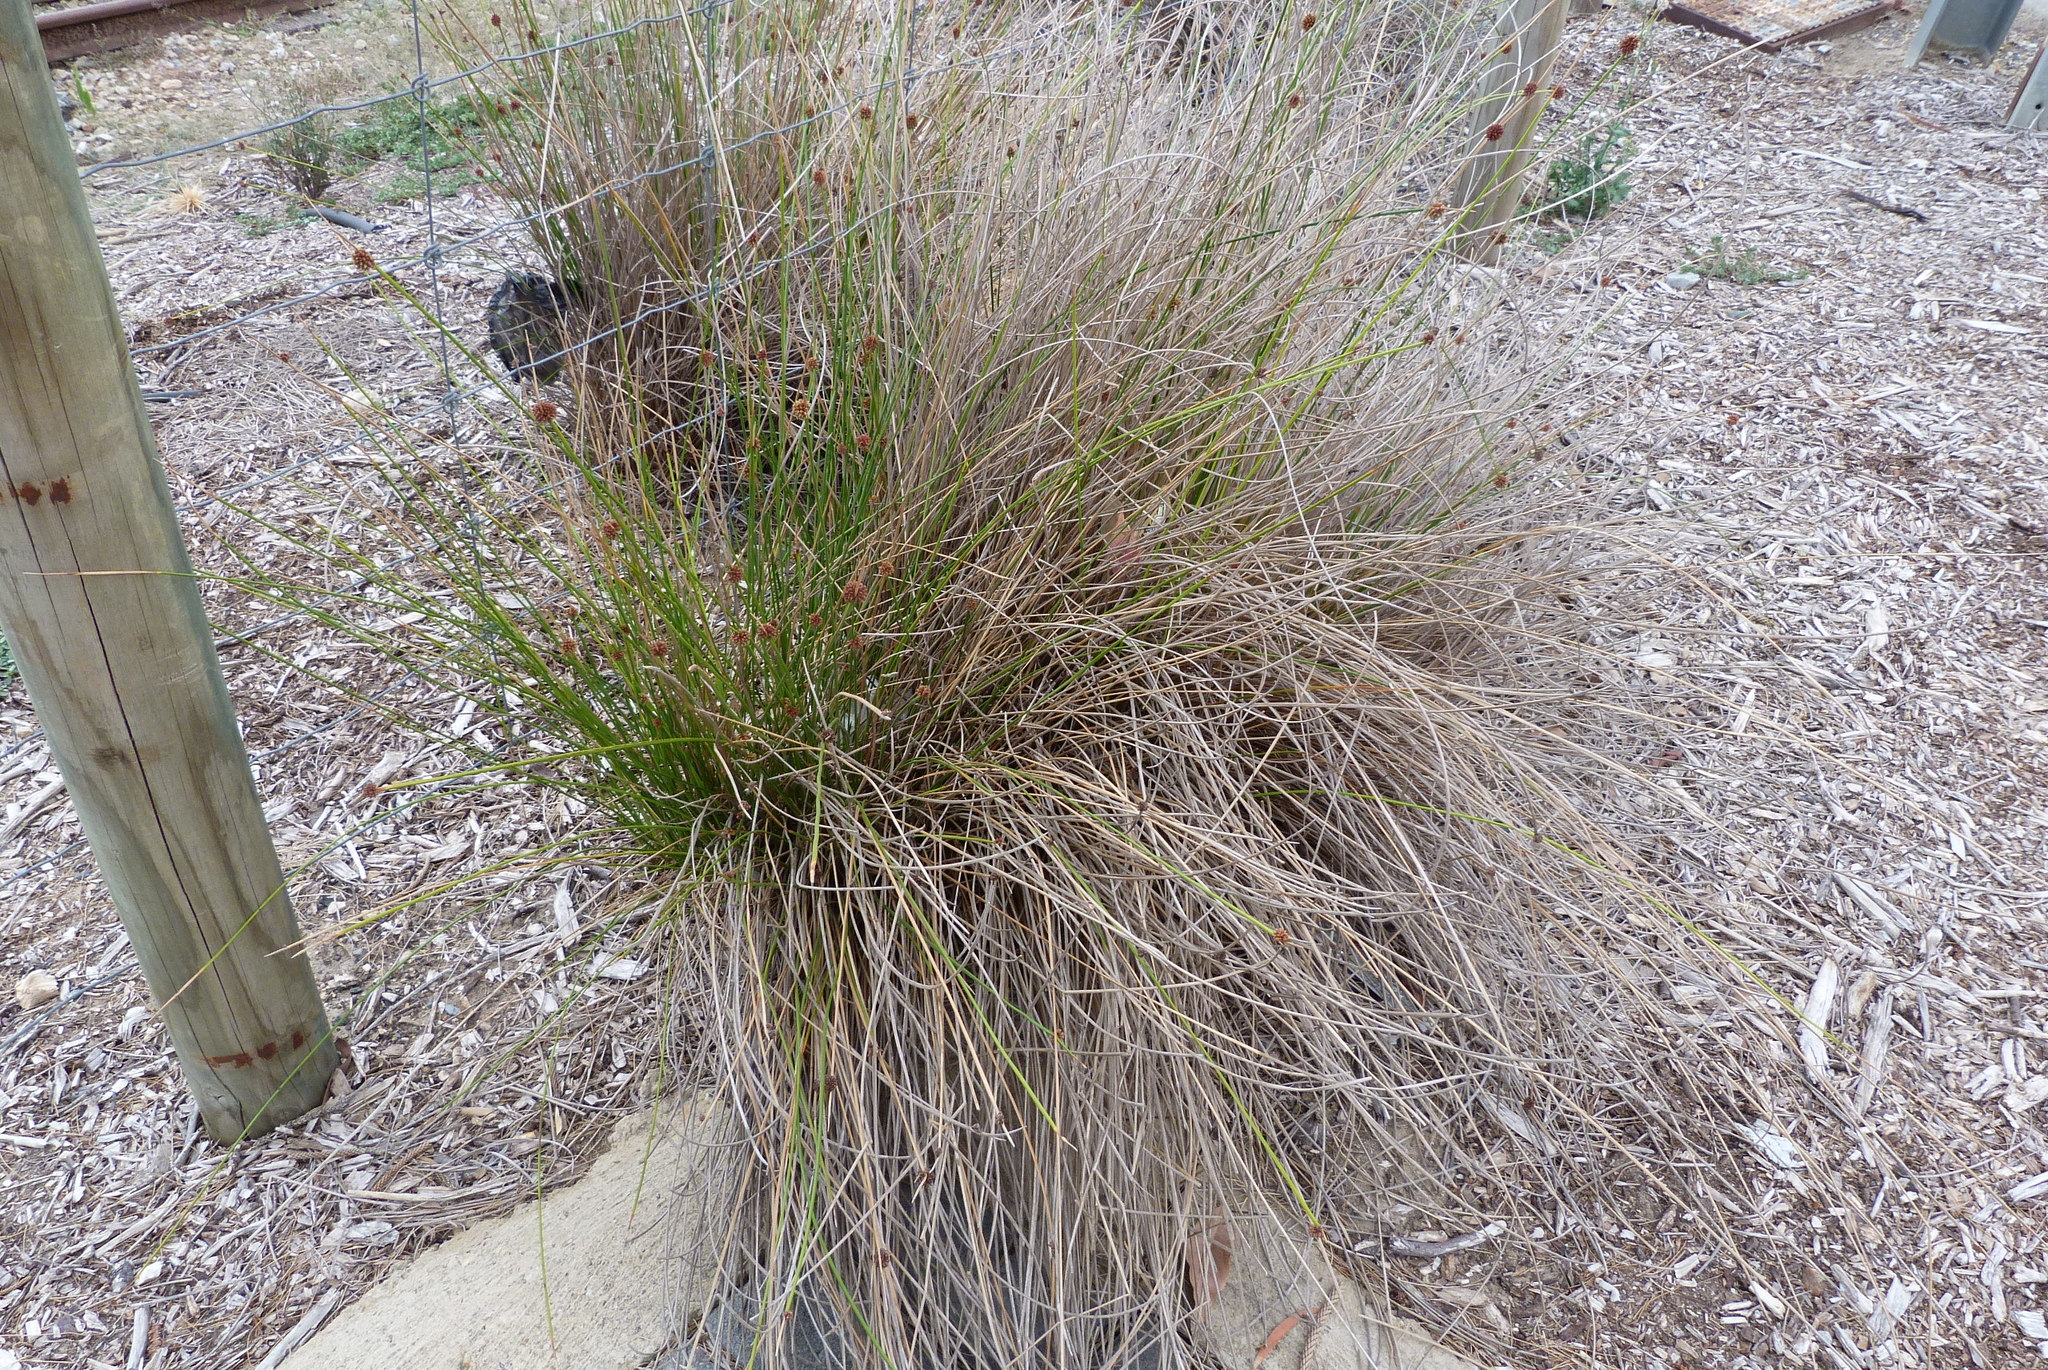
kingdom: Plantae
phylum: Tracheophyta
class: Liliopsida
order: Poales
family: Cyperaceae
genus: Ficinia
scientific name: Ficinia nodosa
